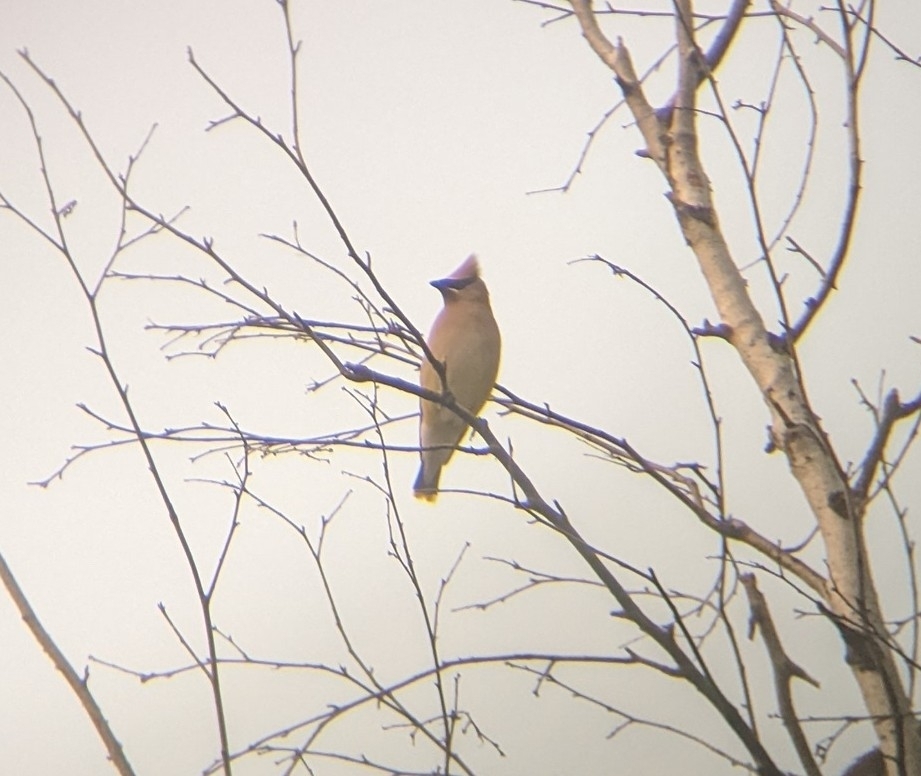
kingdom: Animalia
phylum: Chordata
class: Aves
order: Passeriformes
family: Bombycillidae
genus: Bombycilla
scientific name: Bombycilla cedrorum
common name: Cedar waxwing
